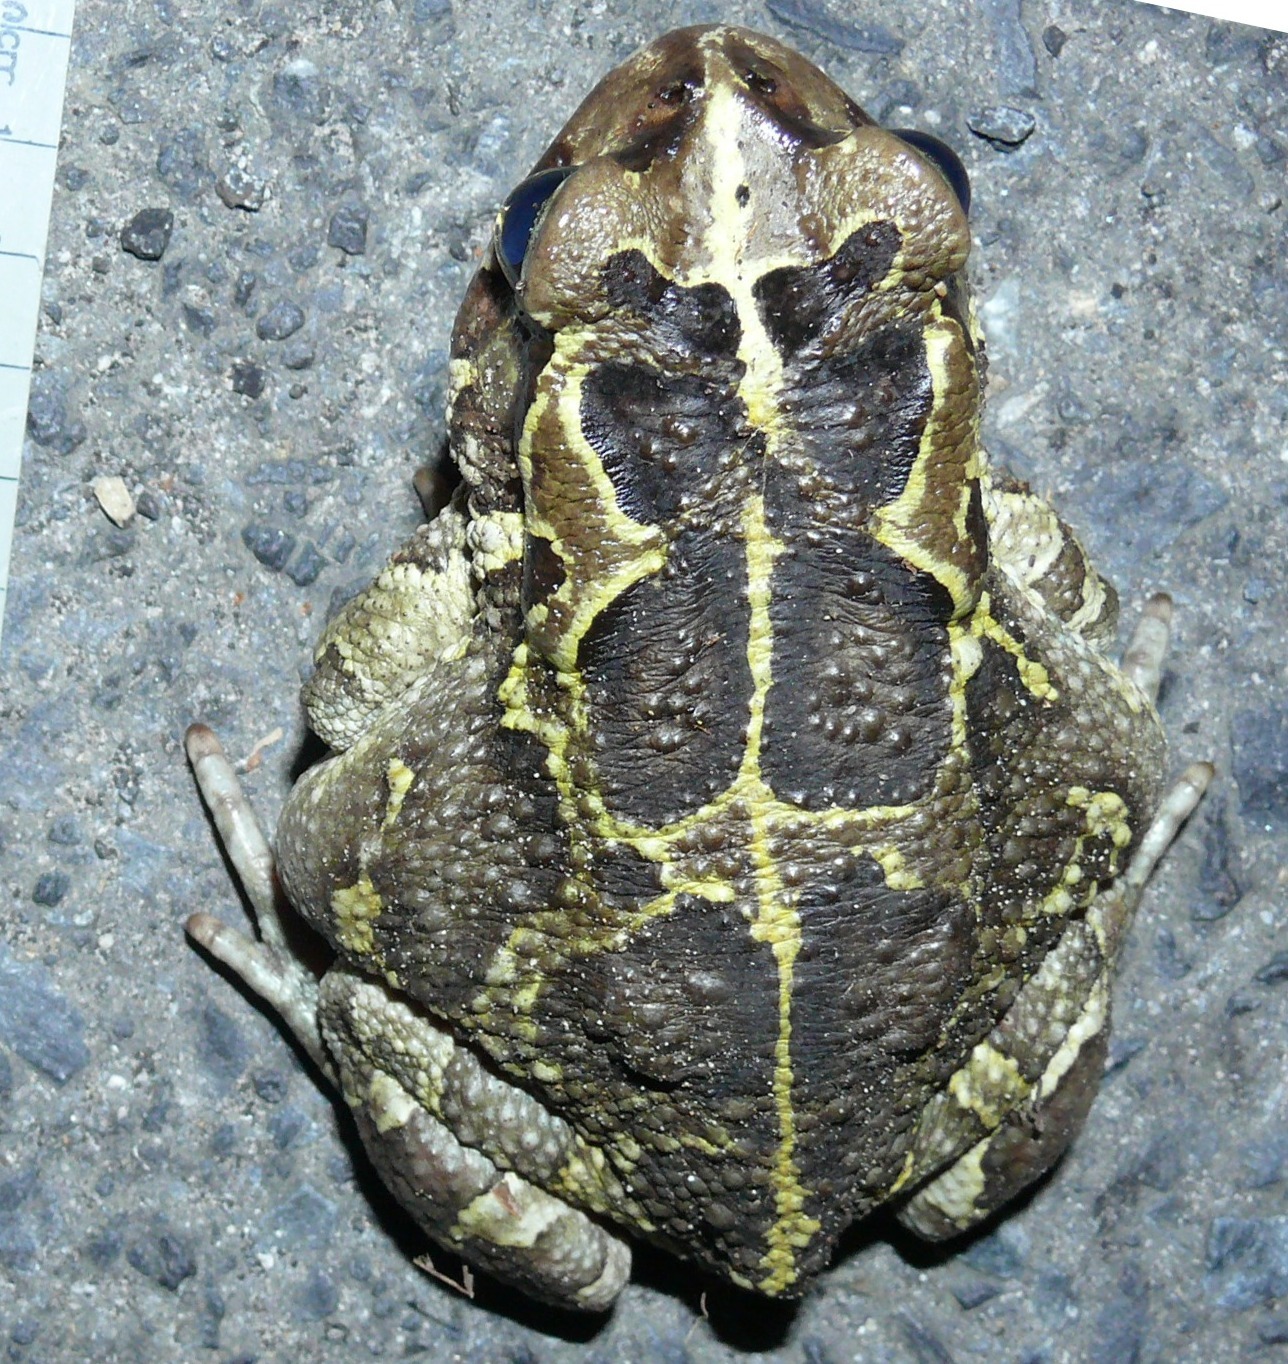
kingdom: Animalia
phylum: Chordata
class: Amphibia
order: Anura
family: Bufonidae
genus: Sclerophrys
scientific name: Sclerophrys pantherina
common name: Panther toad
